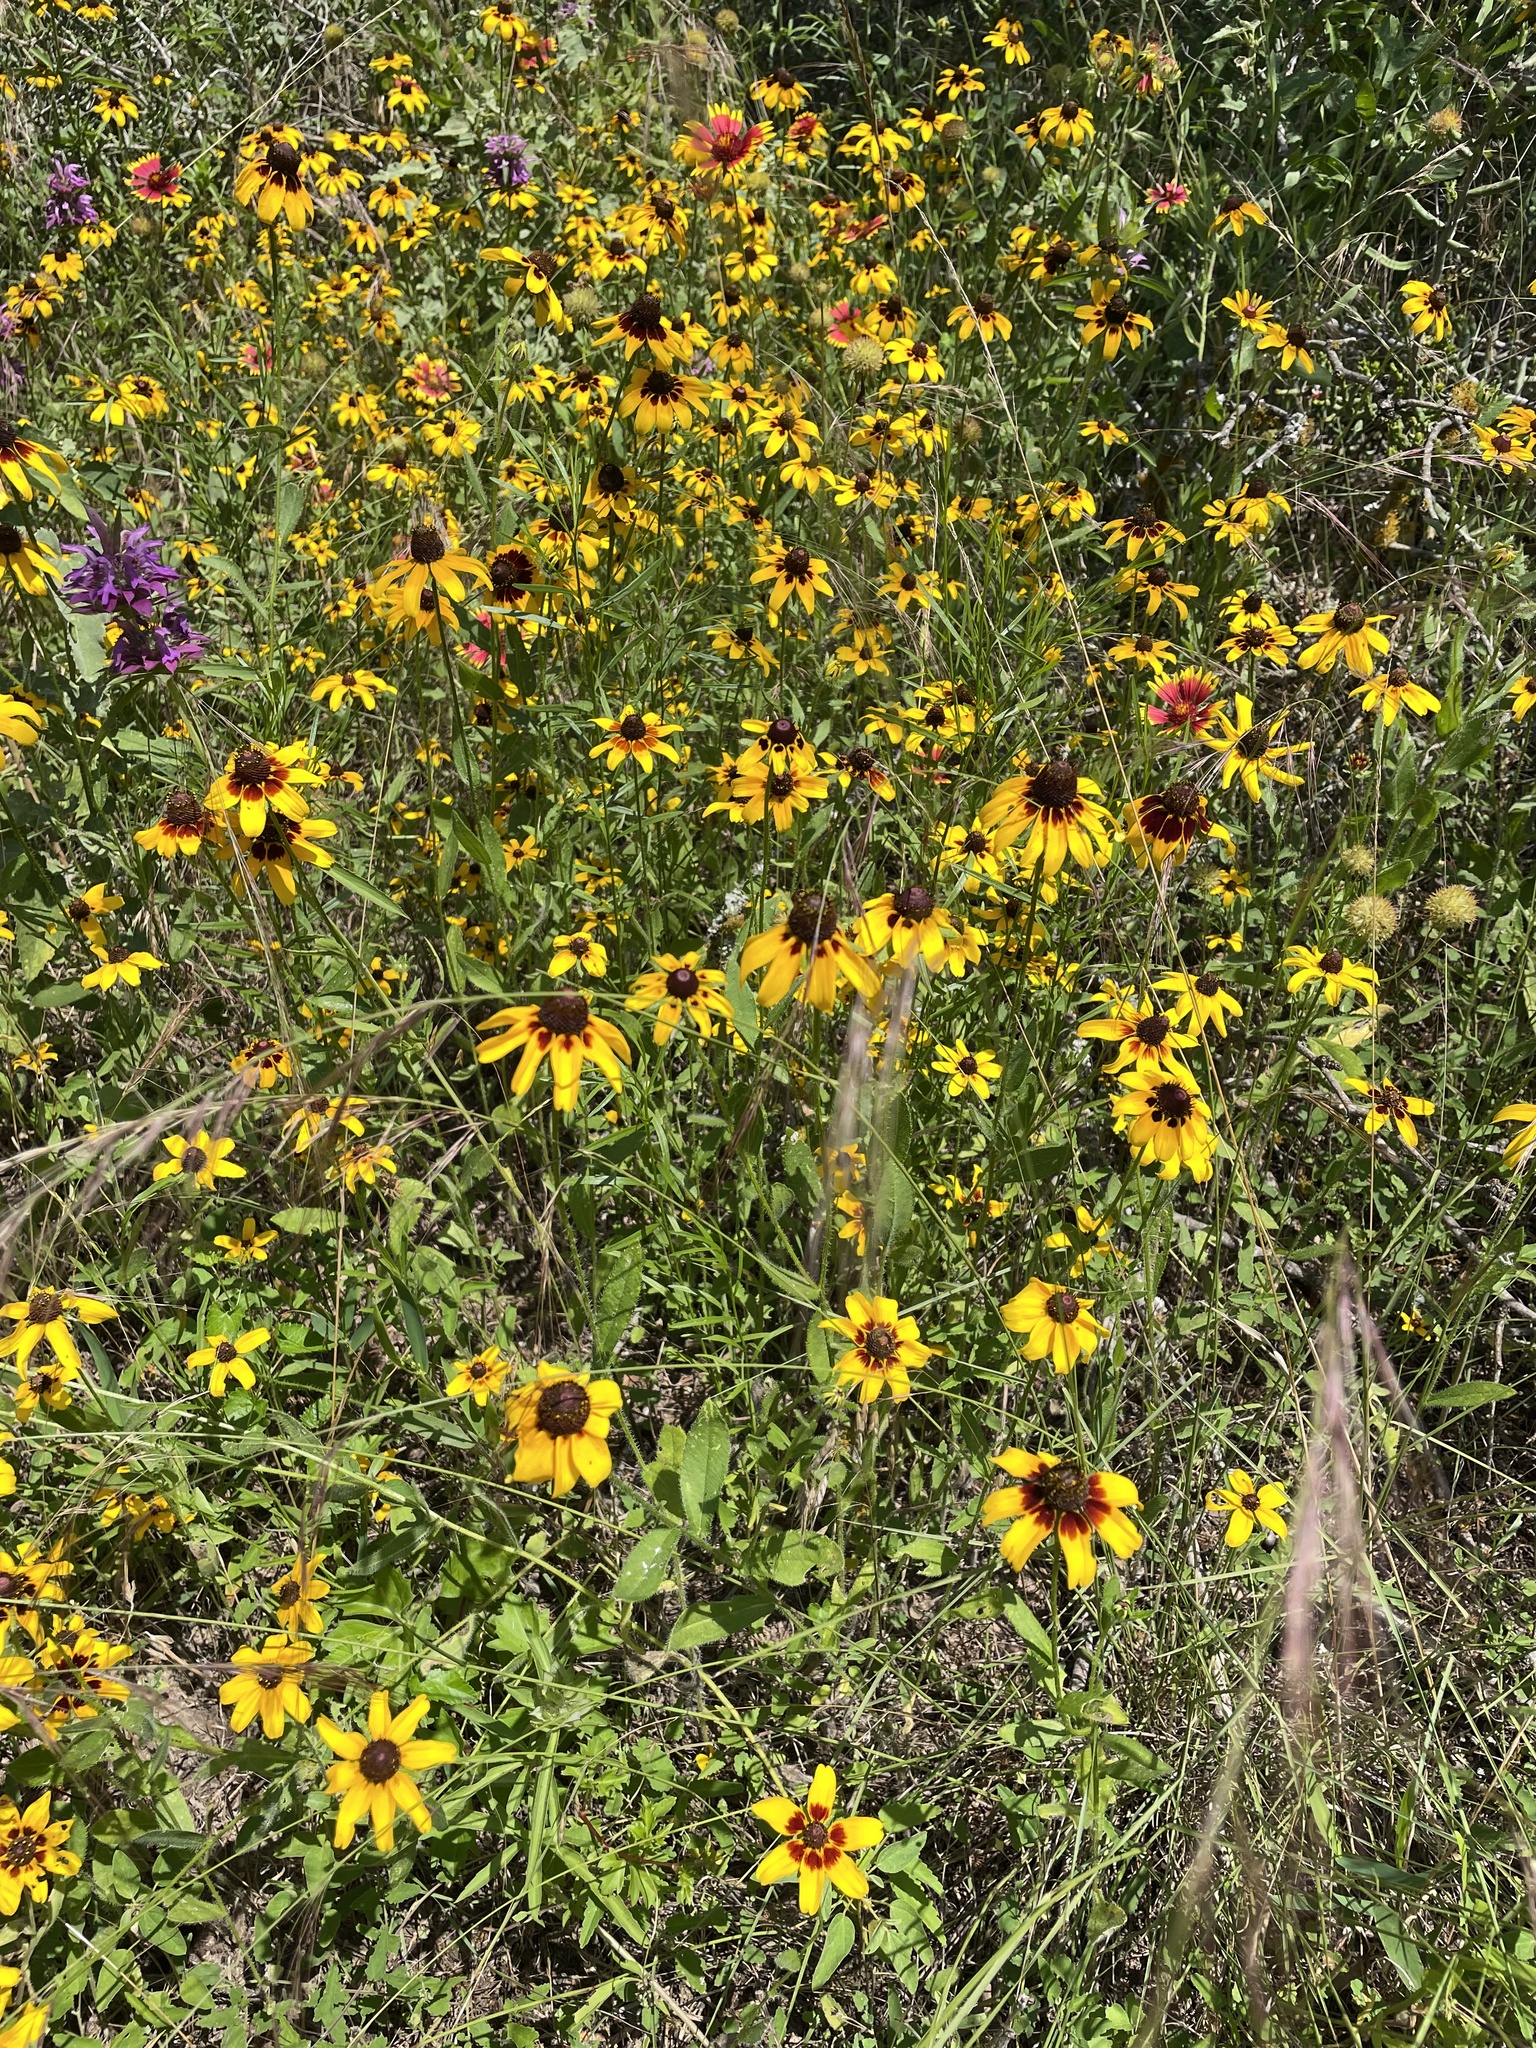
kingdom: Plantae
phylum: Tracheophyta
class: Magnoliopsida
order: Asterales
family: Asteraceae
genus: Rudbeckia
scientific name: Rudbeckia hirta
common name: Black-eyed-susan
